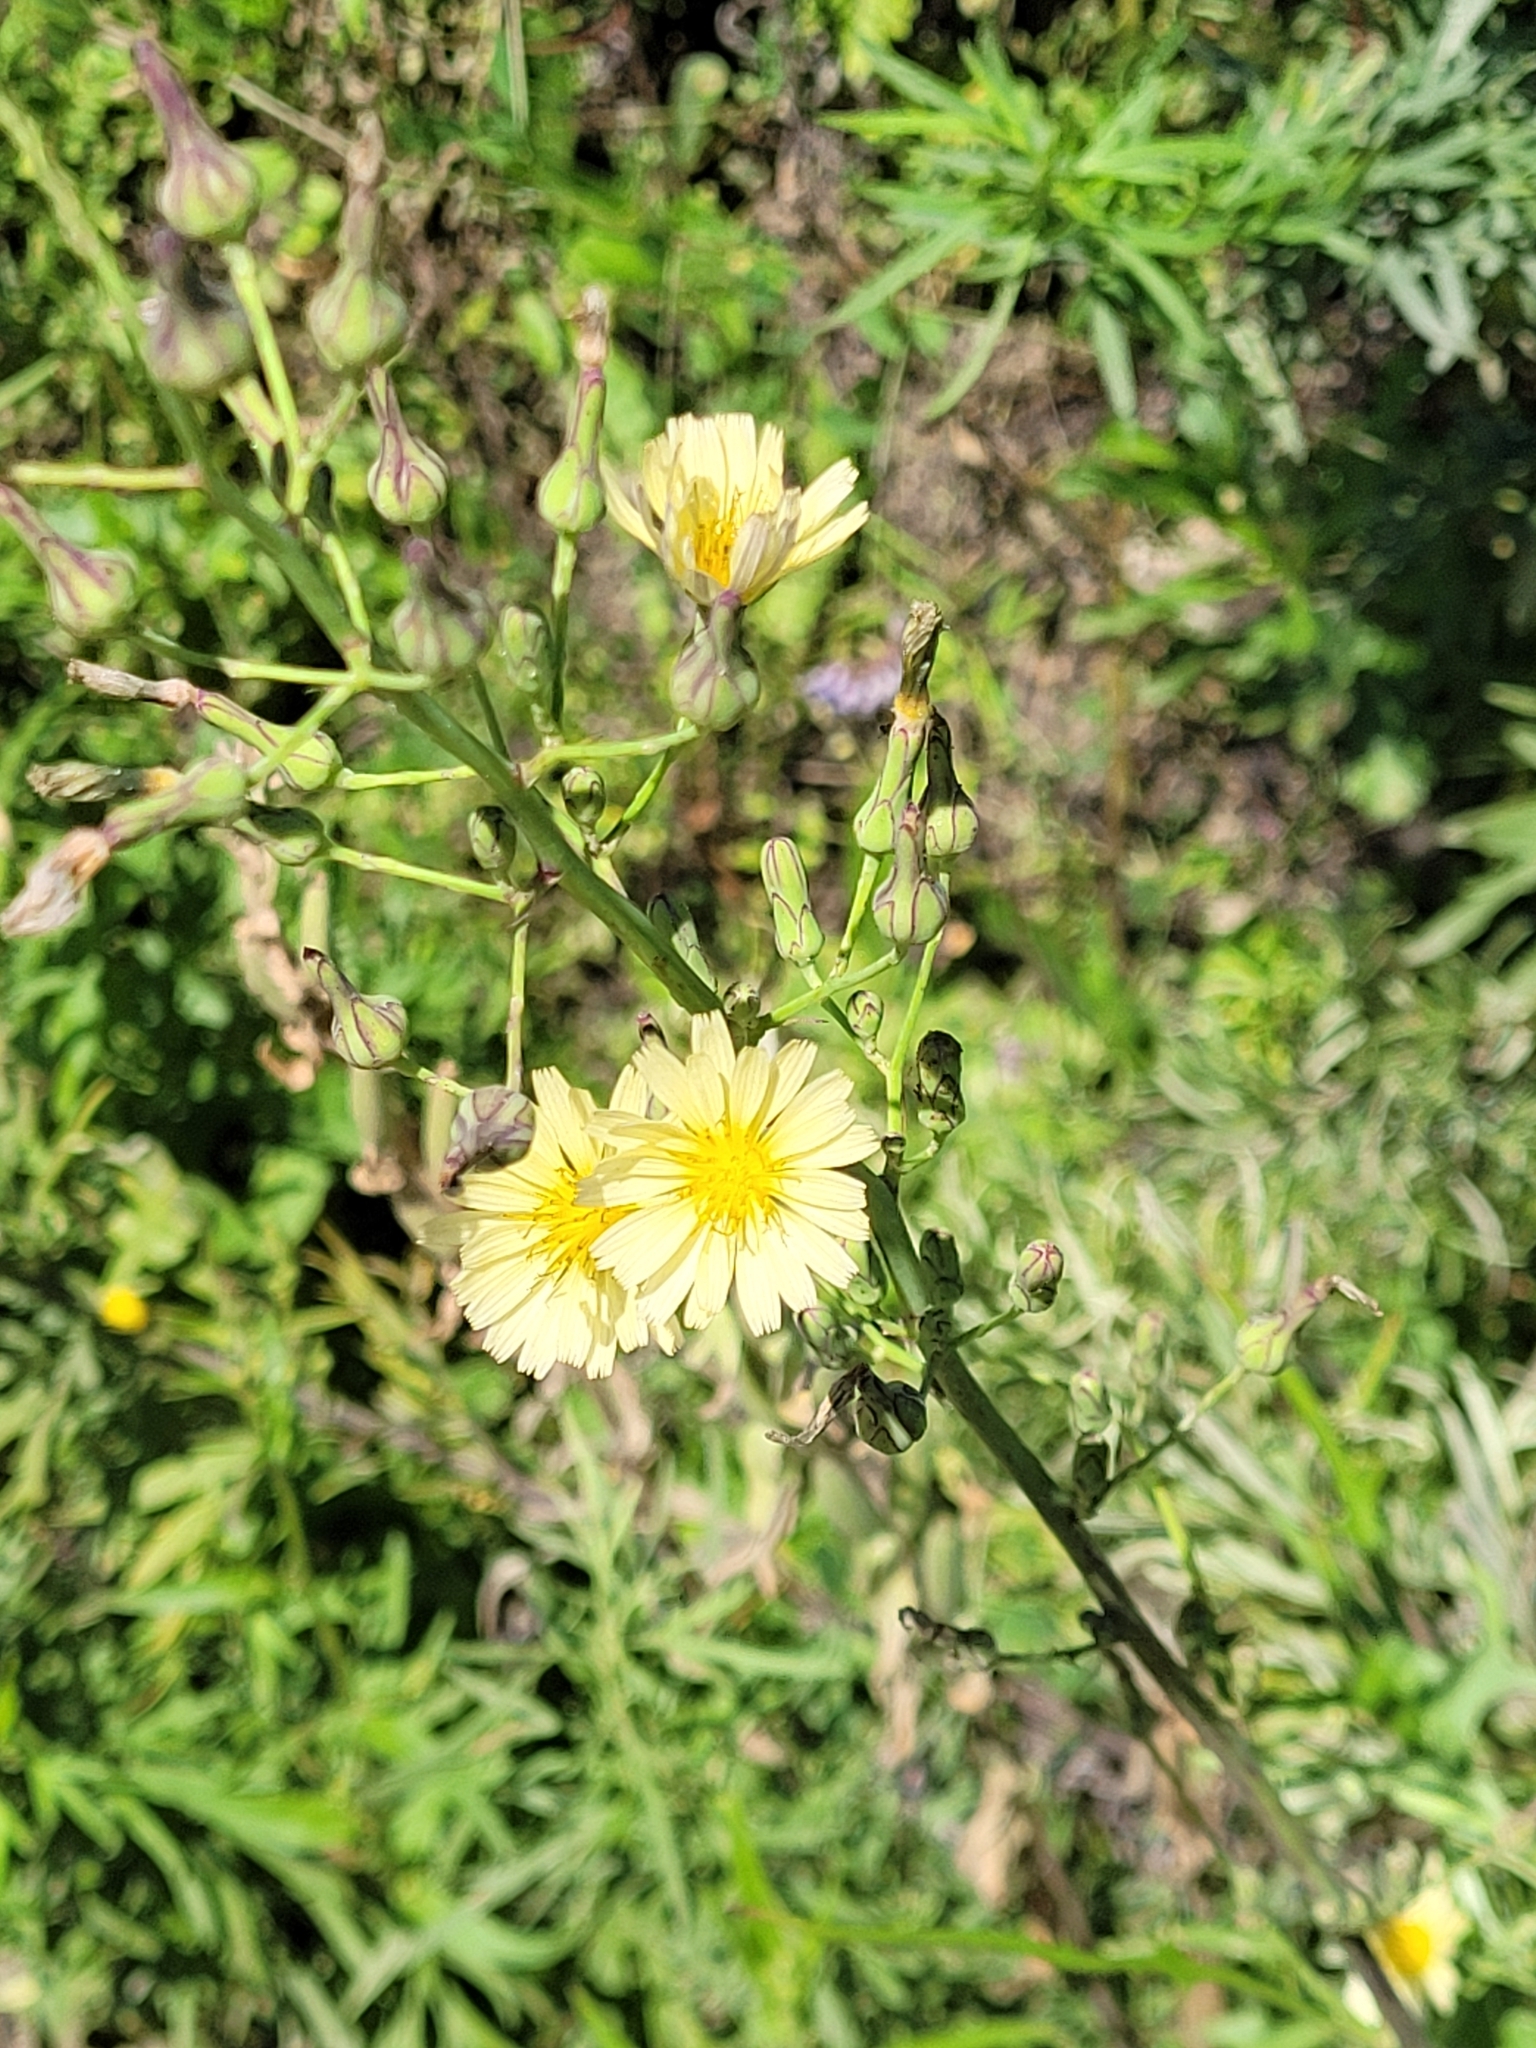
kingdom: Plantae
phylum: Tracheophyta
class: Magnoliopsida
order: Asterales
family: Asteraceae
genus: Lactuca
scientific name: Lactuca indica
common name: Wild lettuce
